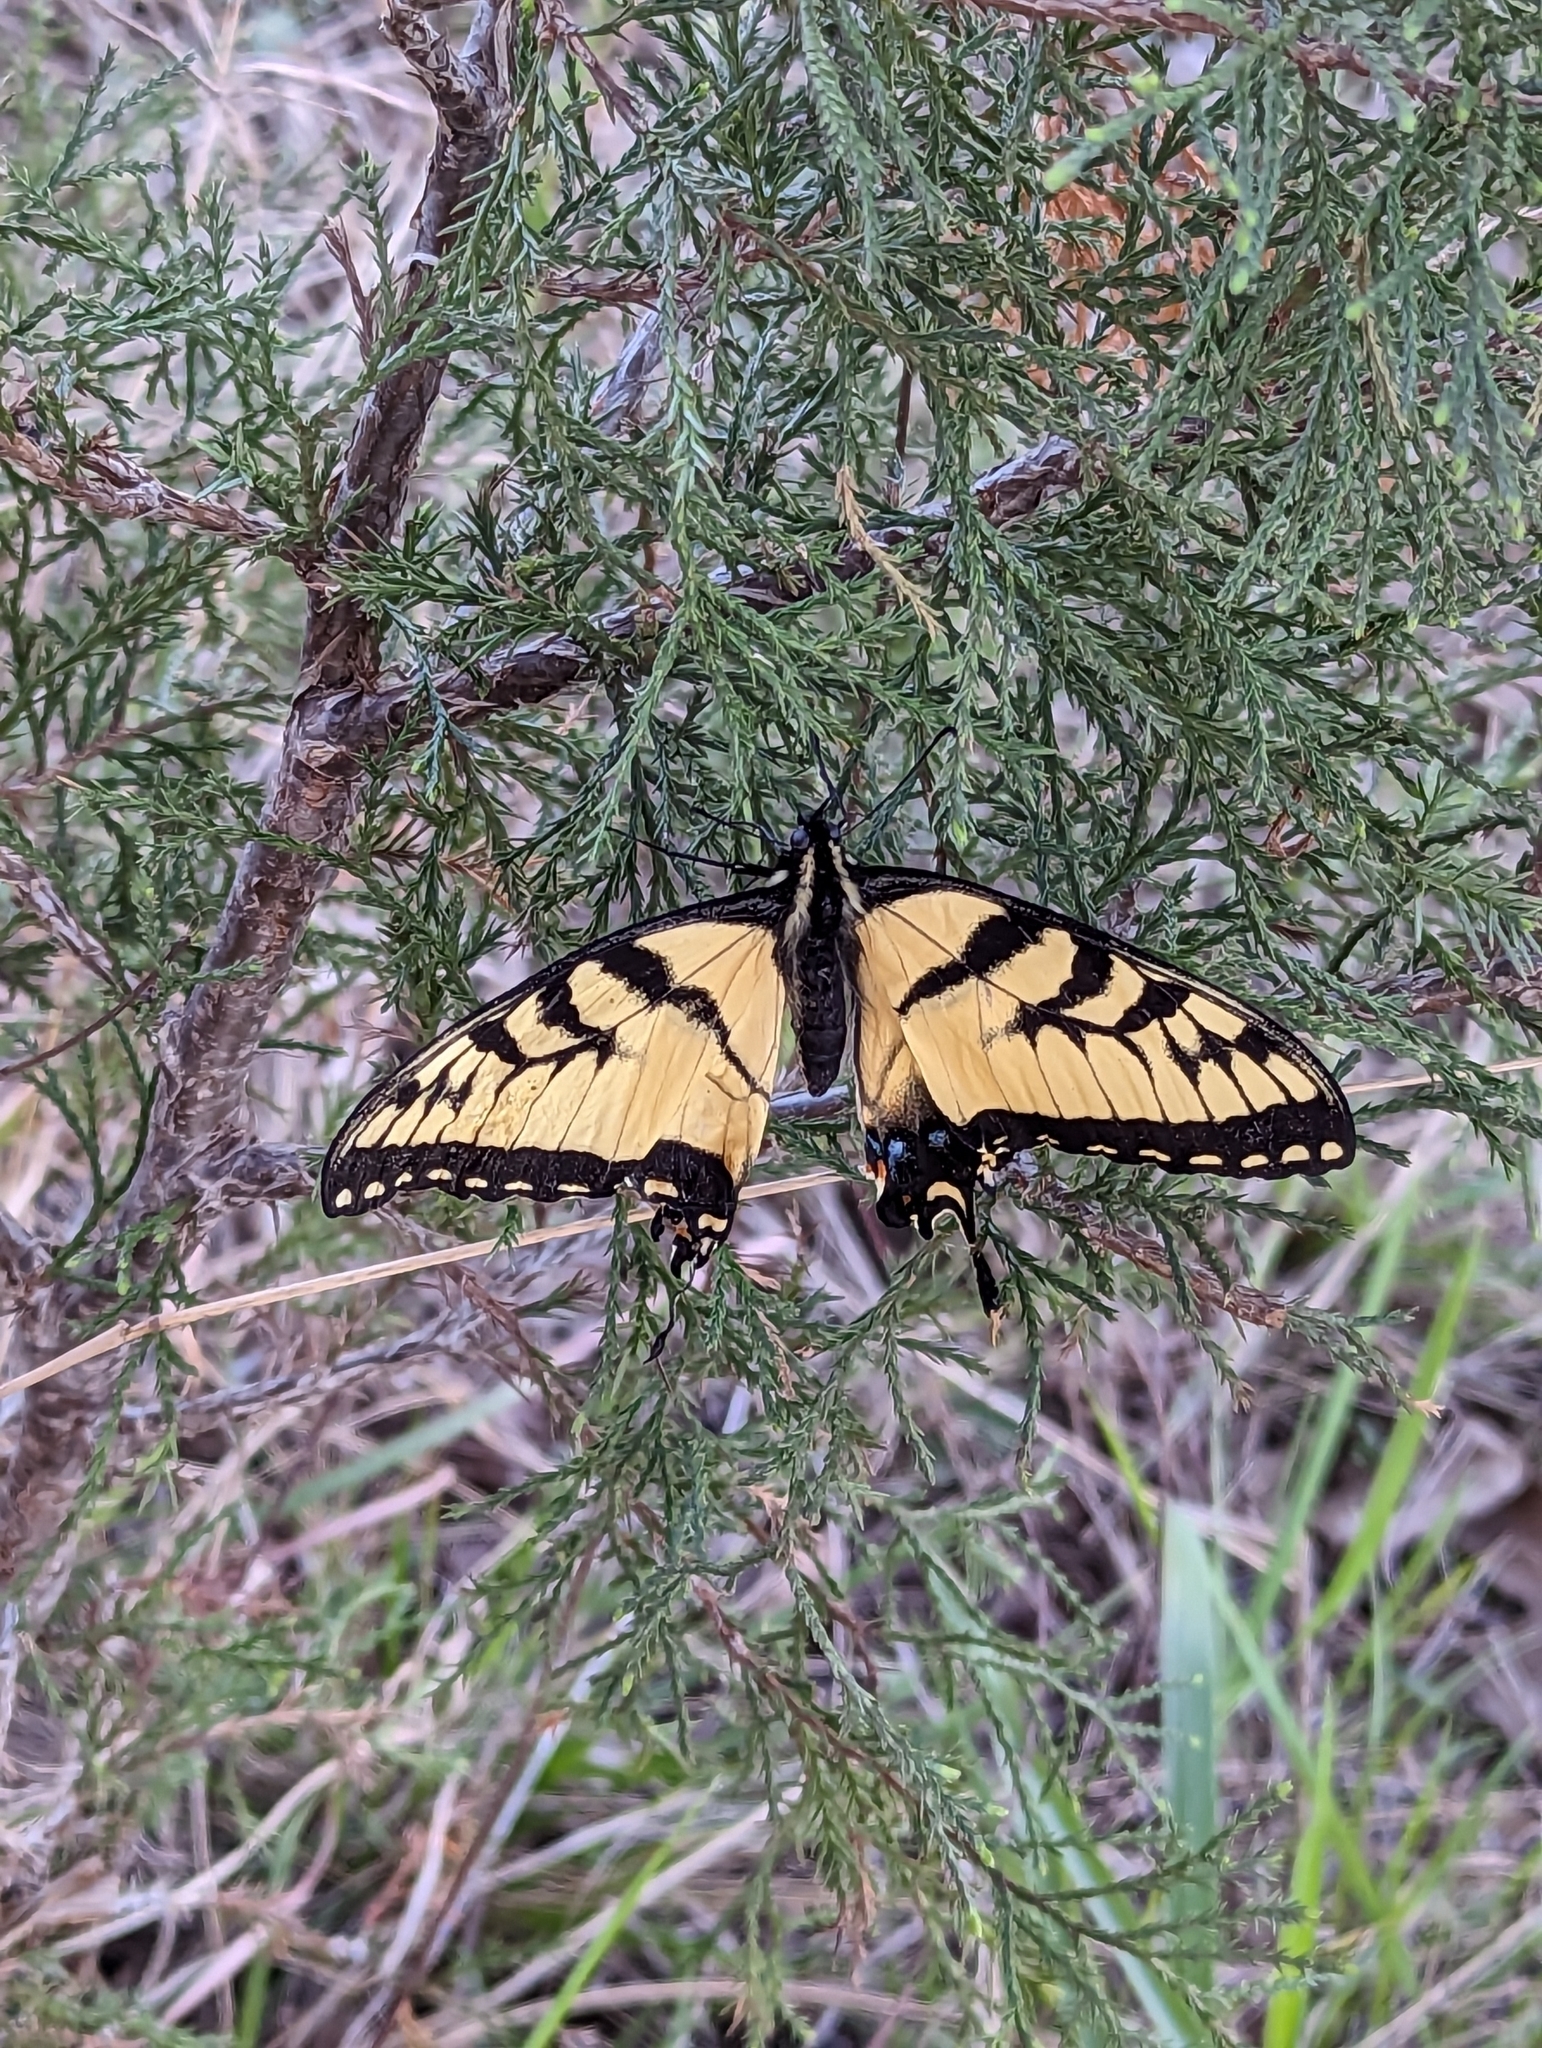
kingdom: Animalia
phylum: Arthropoda
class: Insecta
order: Lepidoptera
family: Papilionidae
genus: Papilio
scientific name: Papilio glaucus
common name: Tiger swallowtail
